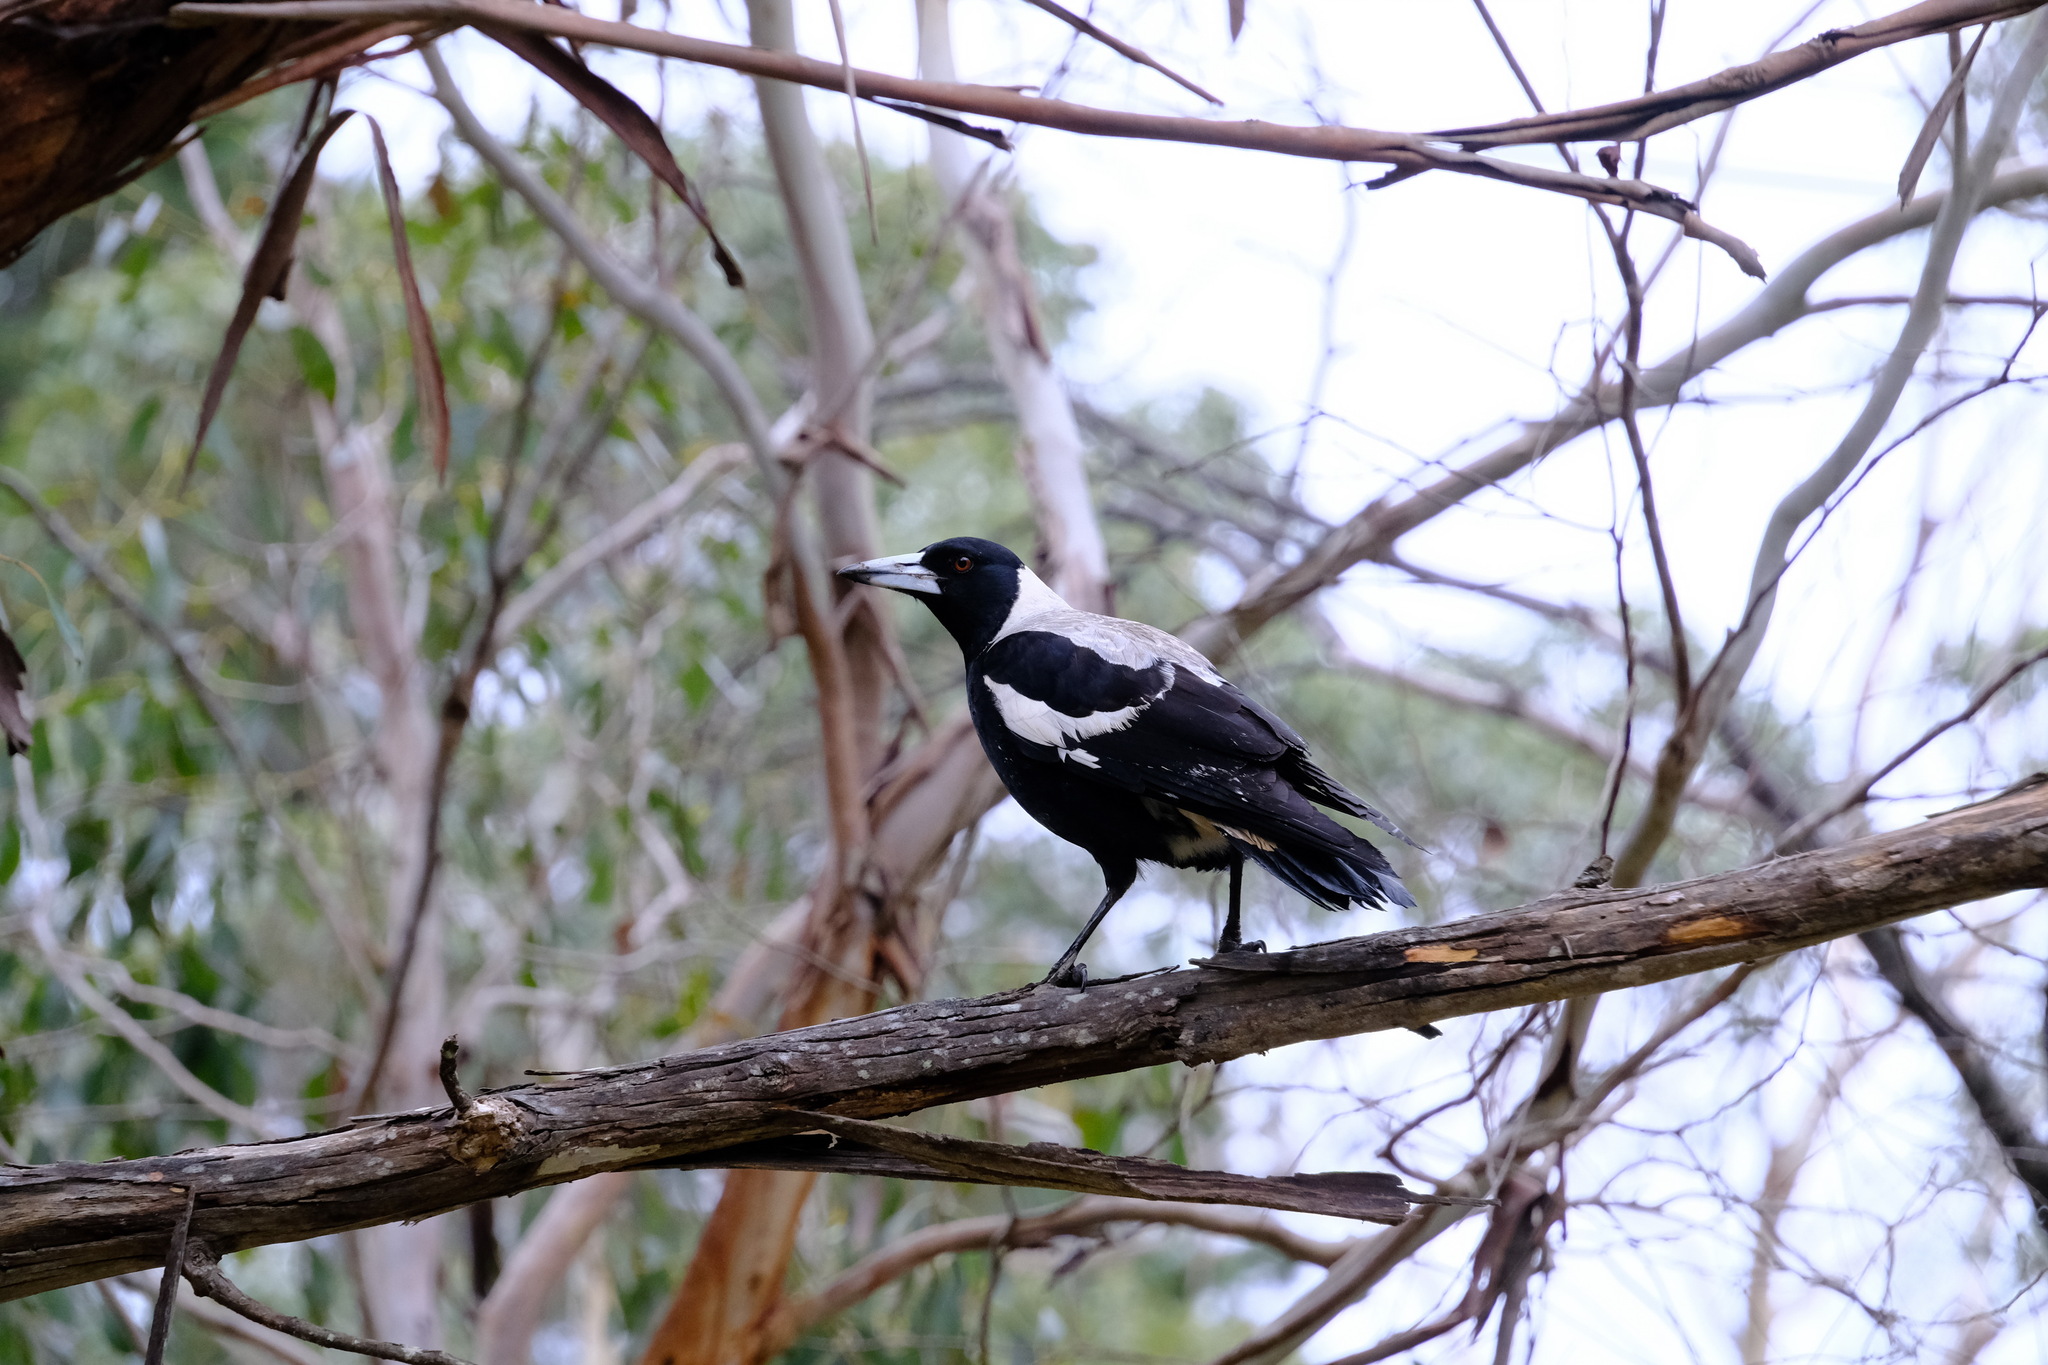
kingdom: Animalia
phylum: Chordata
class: Aves
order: Passeriformes
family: Cracticidae
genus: Gymnorhina
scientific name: Gymnorhina tibicen
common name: Australian magpie
